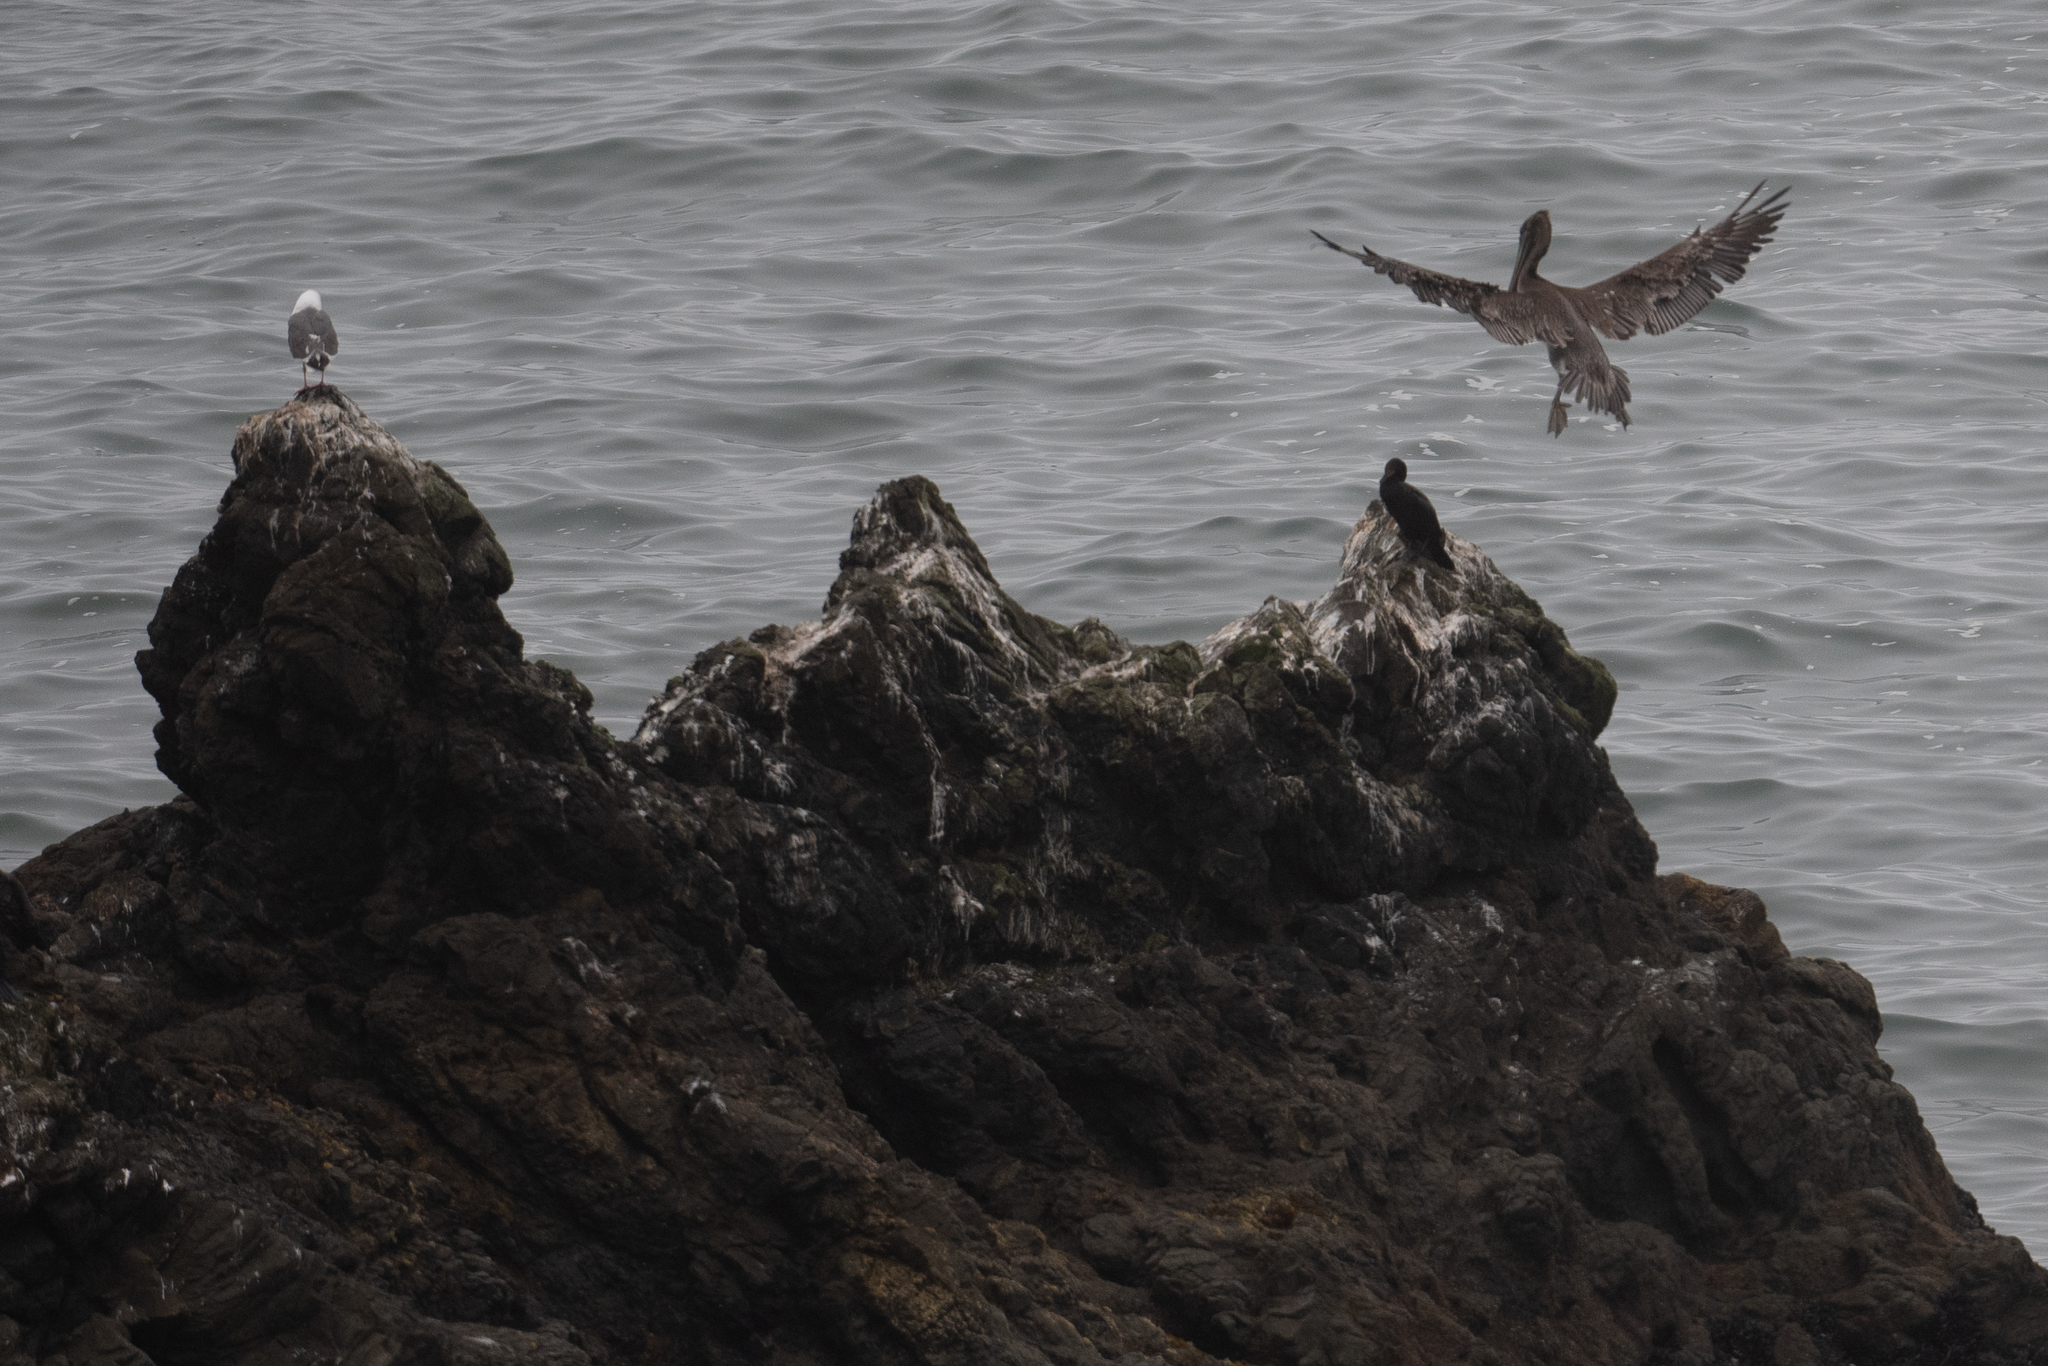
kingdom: Animalia
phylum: Chordata
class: Aves
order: Pelecaniformes
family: Pelecanidae
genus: Pelecanus
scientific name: Pelecanus occidentalis
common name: Brown pelican
